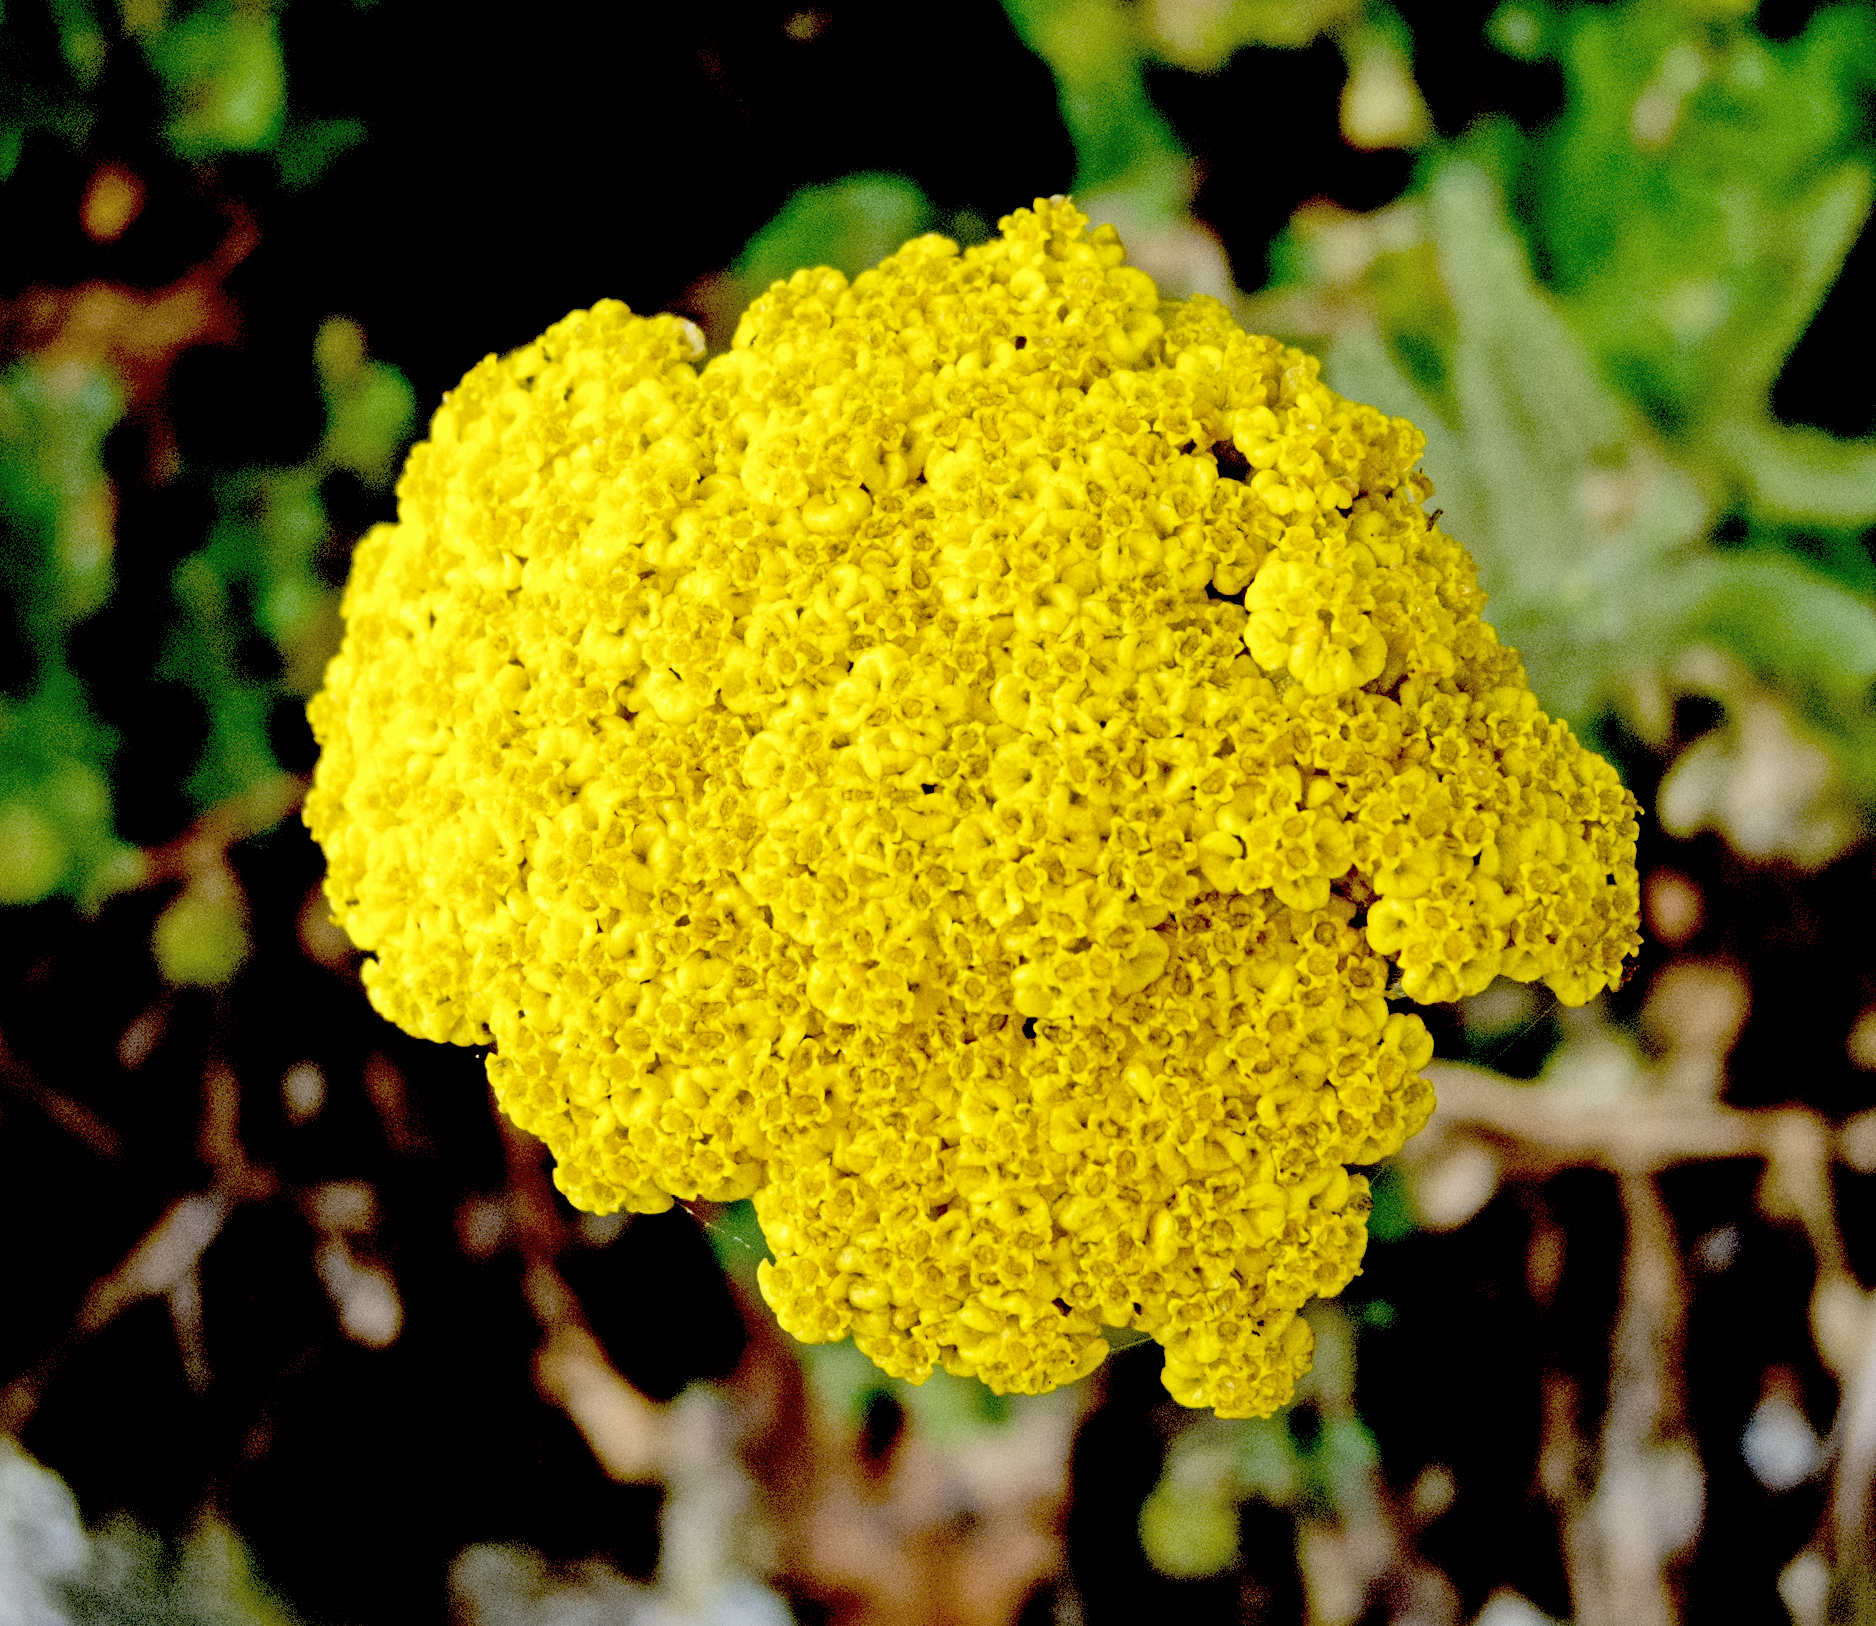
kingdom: Plantae
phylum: Tracheophyta
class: Magnoliopsida
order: Asterales
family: Asteraceae
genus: Achillea
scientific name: Achillea filipendulina
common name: Fernleaf yarrow
